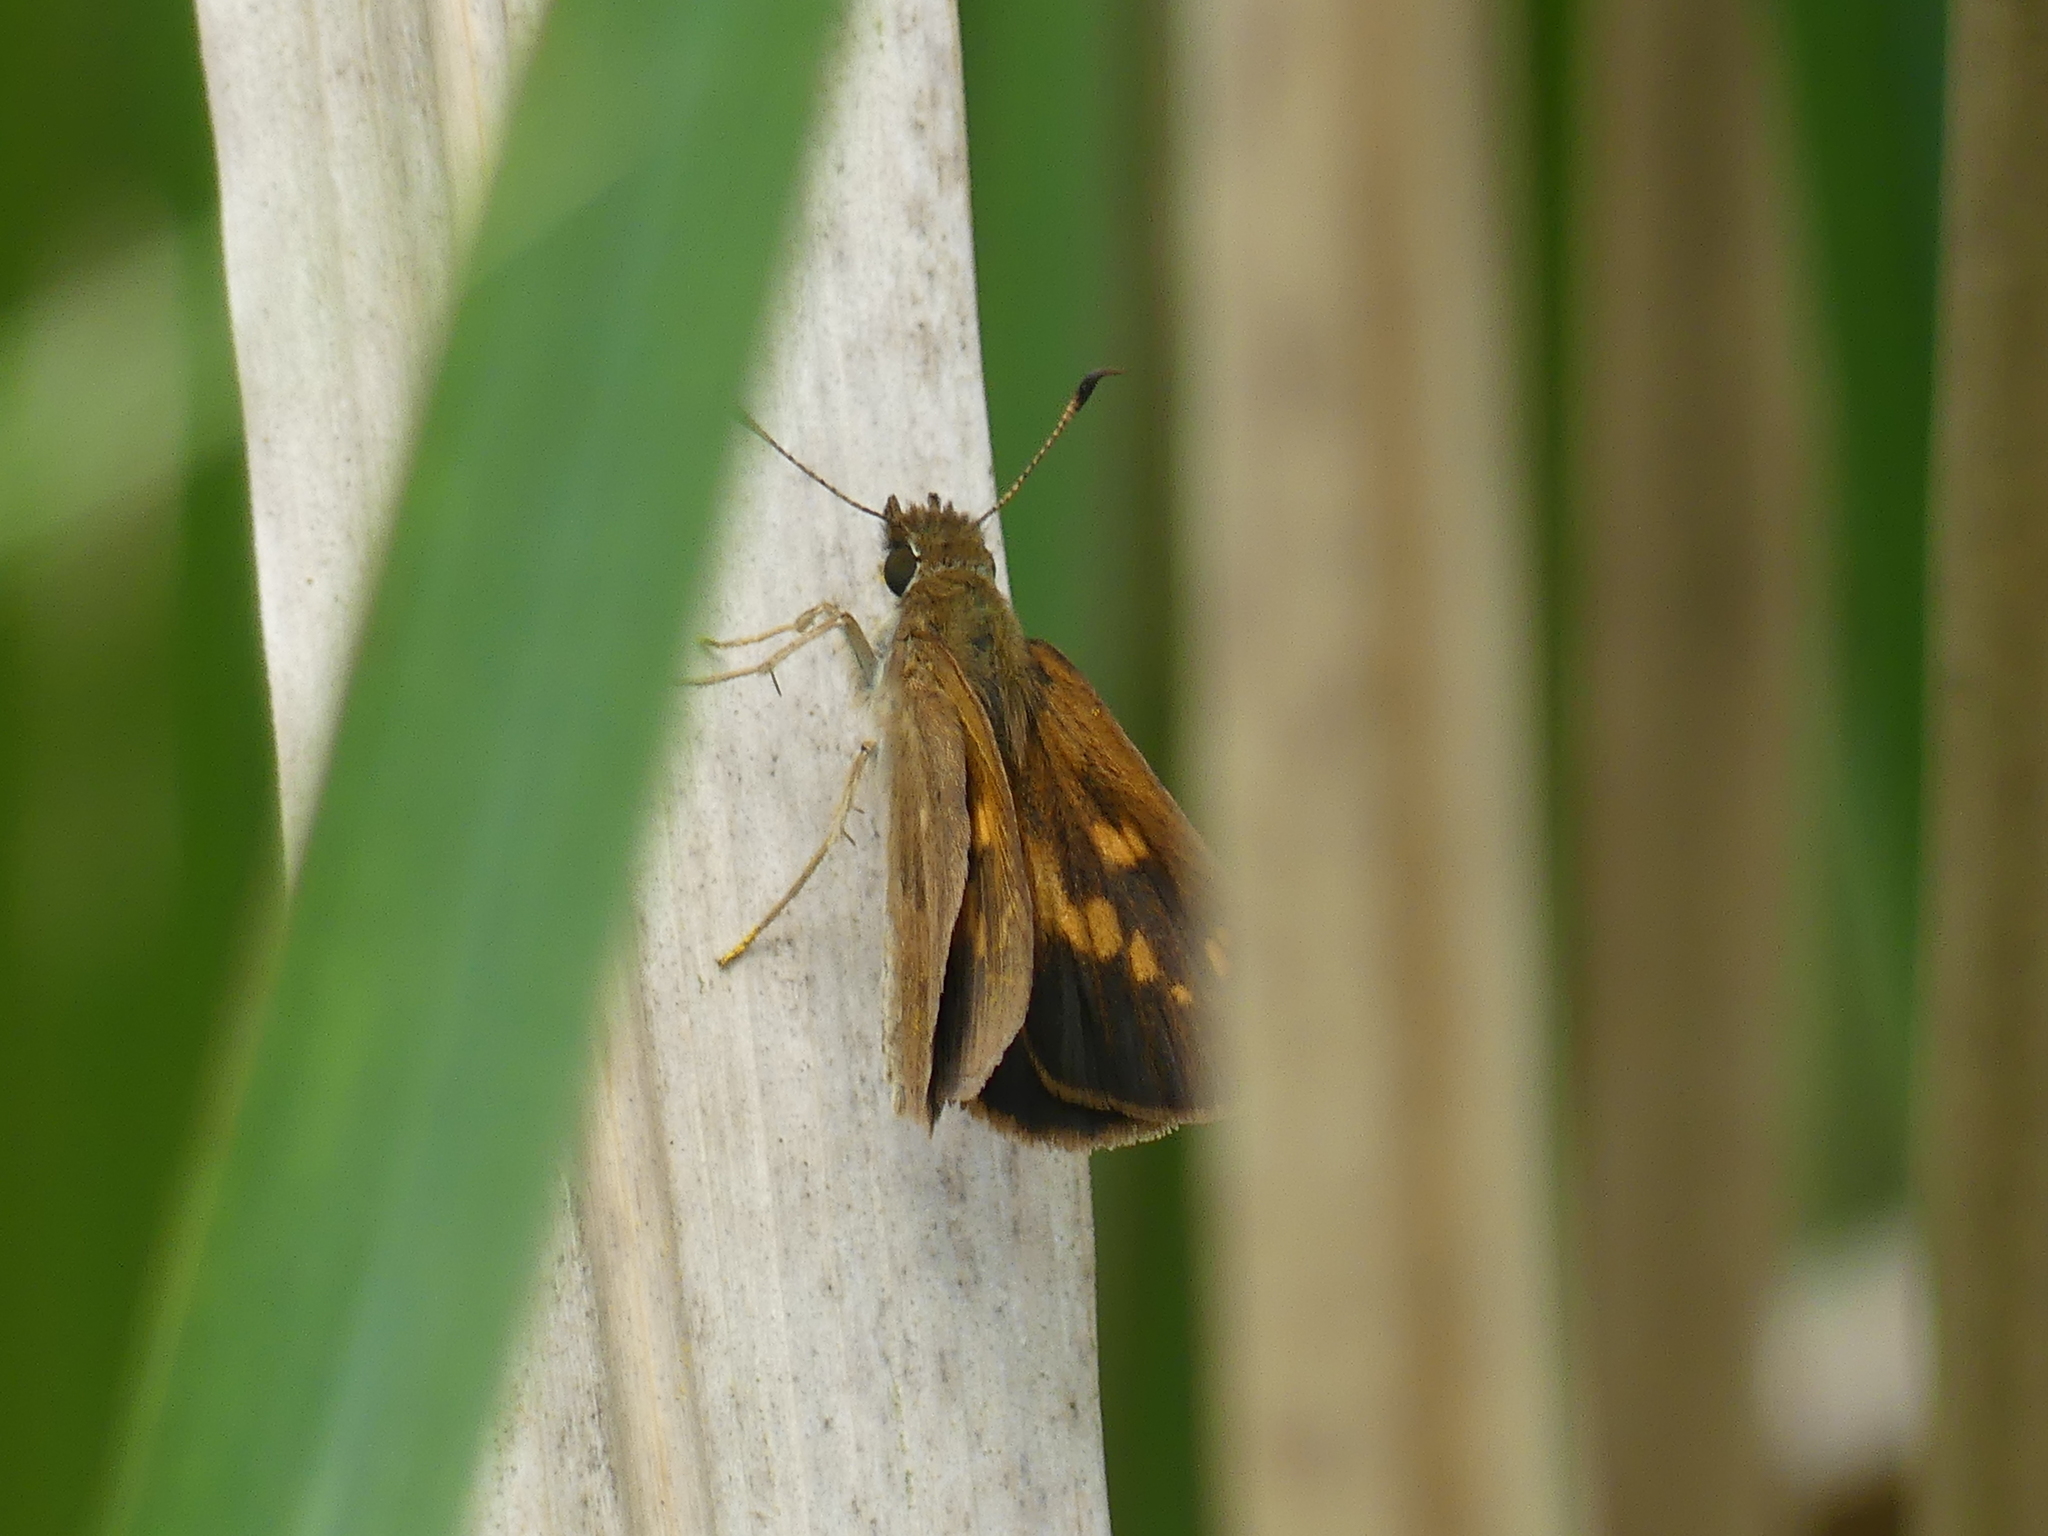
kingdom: Animalia
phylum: Arthropoda
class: Insecta
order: Lepidoptera
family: Hesperiidae
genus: Poanes
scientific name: Poanes viator
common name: Broad-winged skipper
